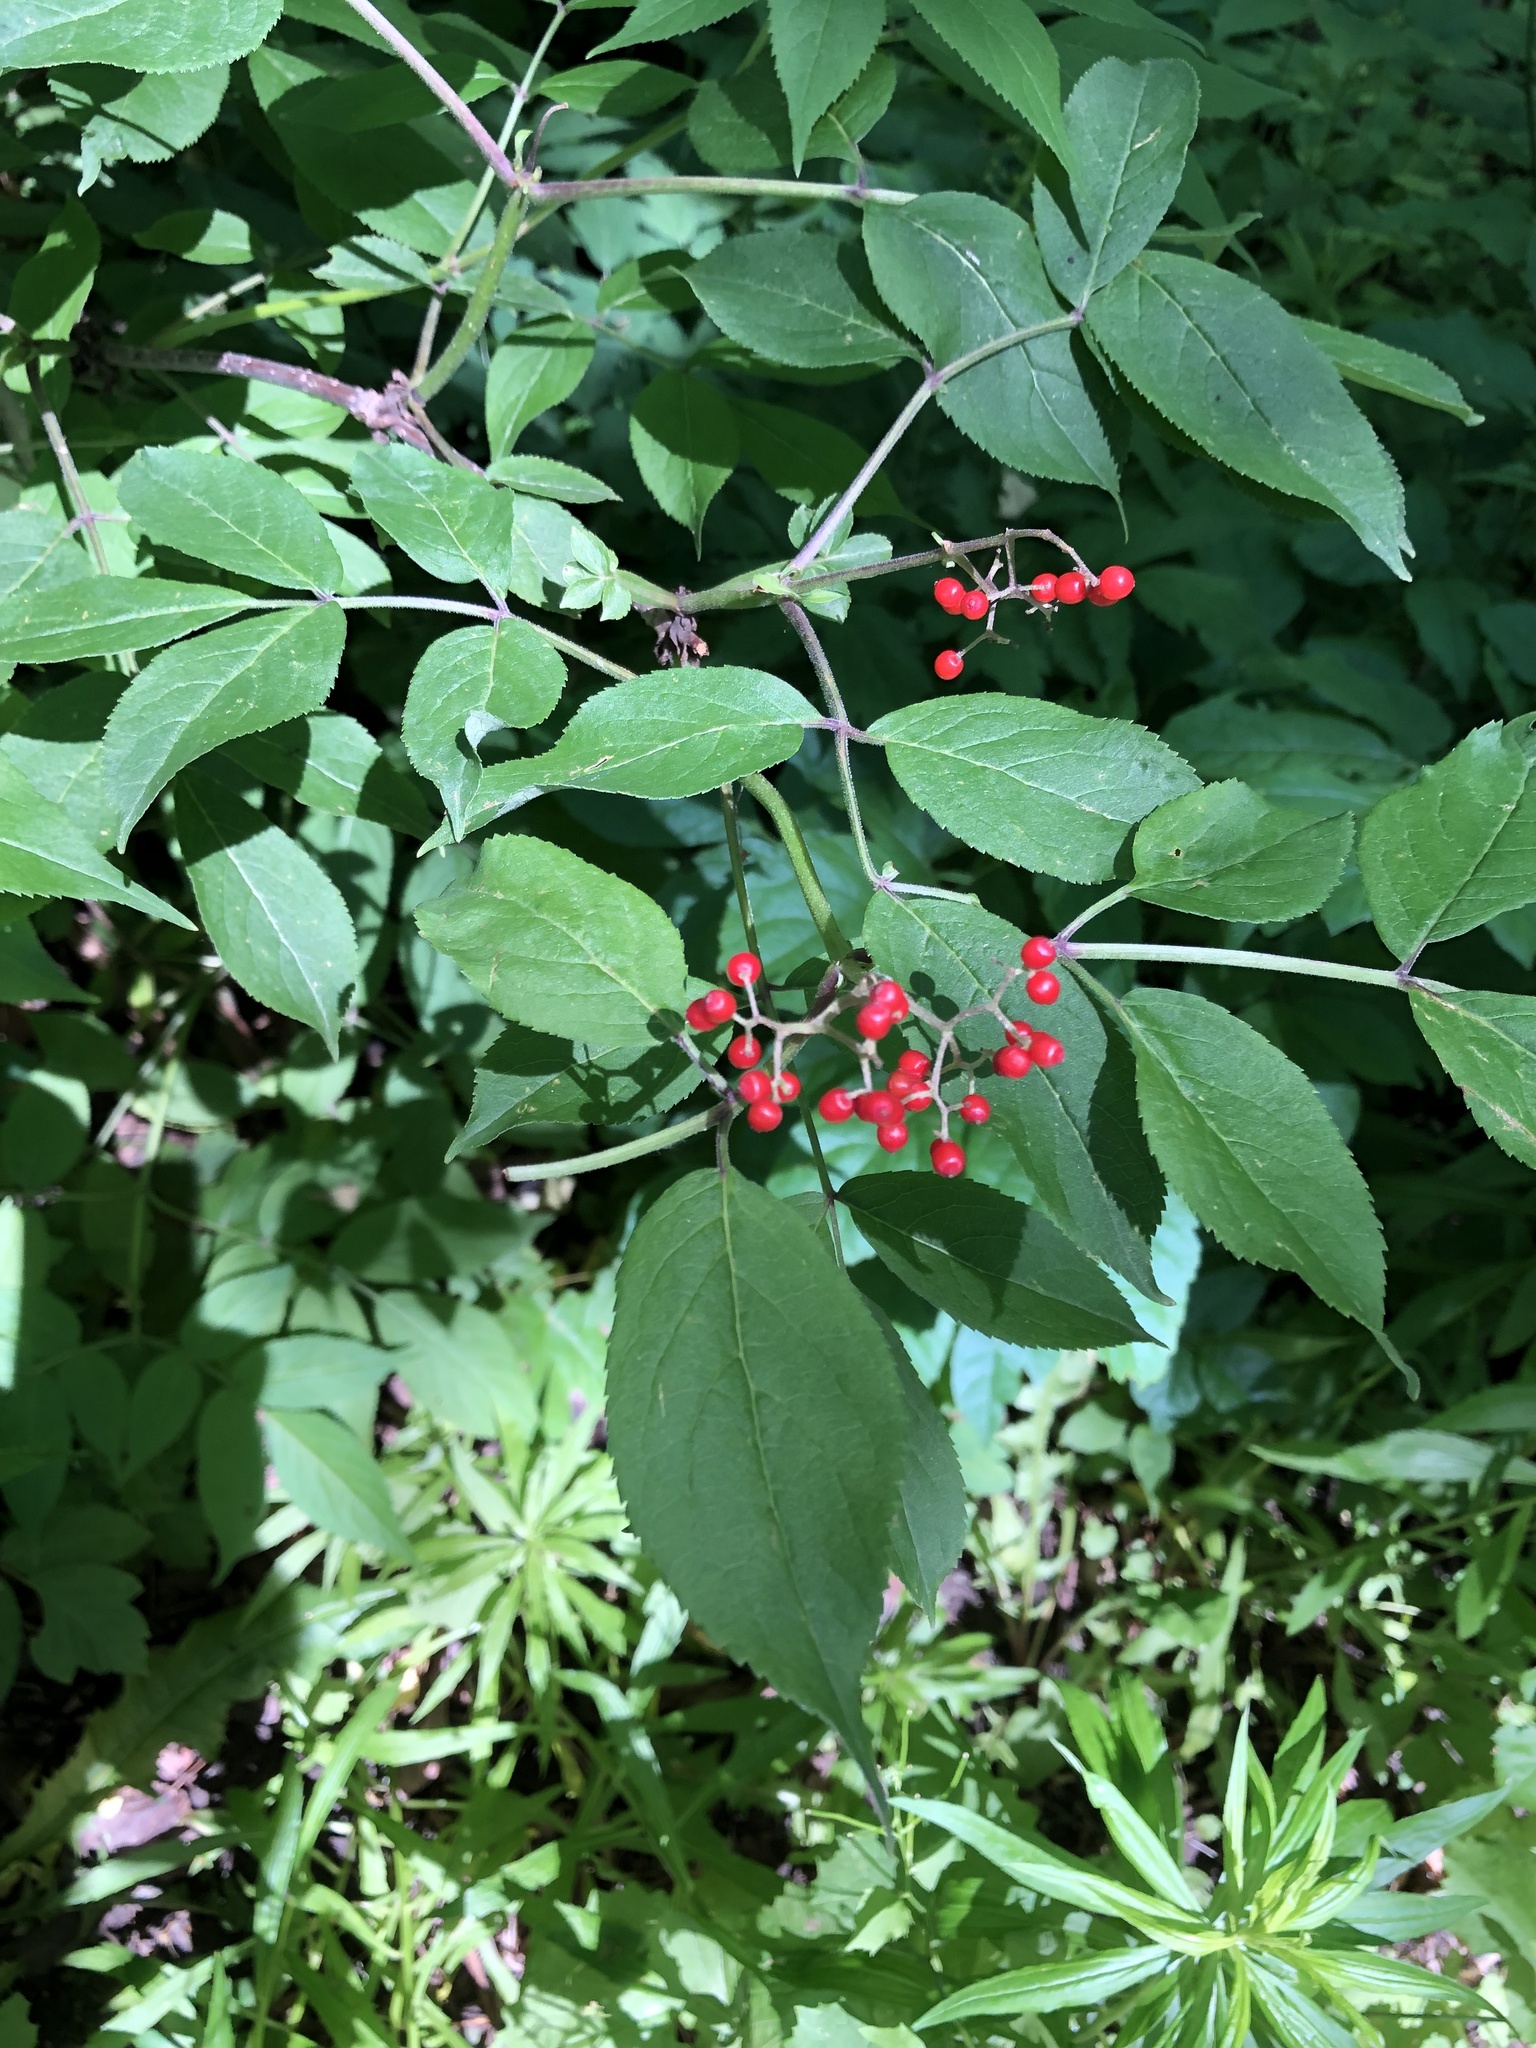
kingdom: Plantae
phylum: Tracheophyta
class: Magnoliopsida
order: Dipsacales
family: Viburnaceae
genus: Sambucus
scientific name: Sambucus racemosa
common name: Red-berried elder
